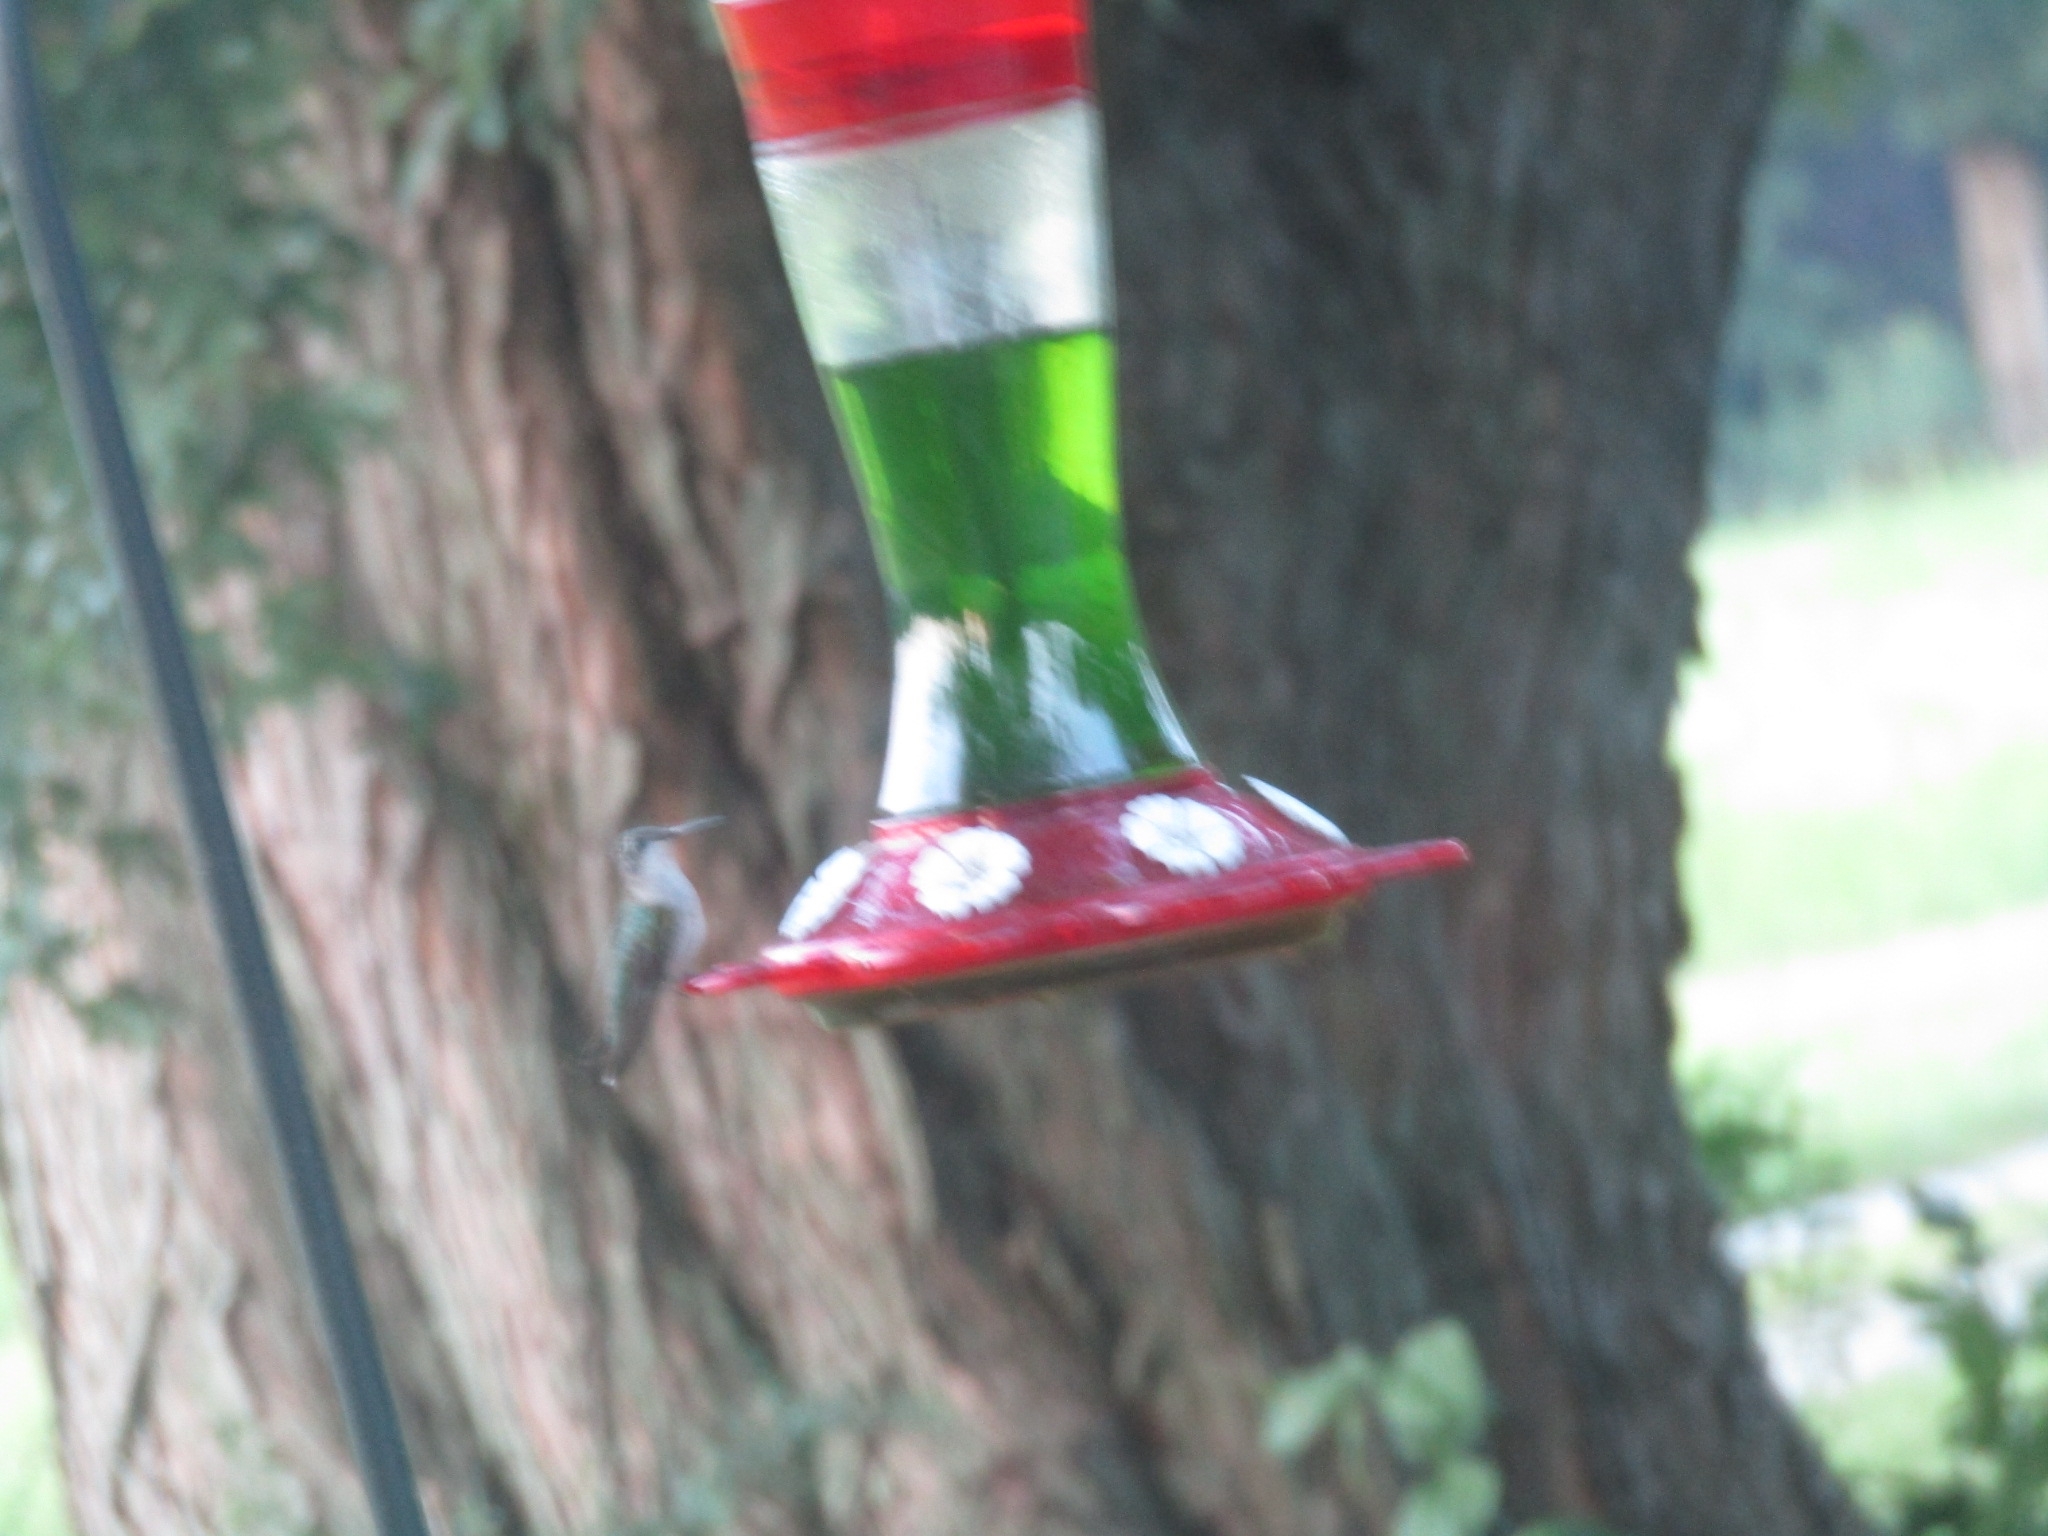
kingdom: Animalia
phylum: Chordata
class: Aves
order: Apodiformes
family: Trochilidae
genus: Archilochus
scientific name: Archilochus colubris
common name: Ruby-throated hummingbird
